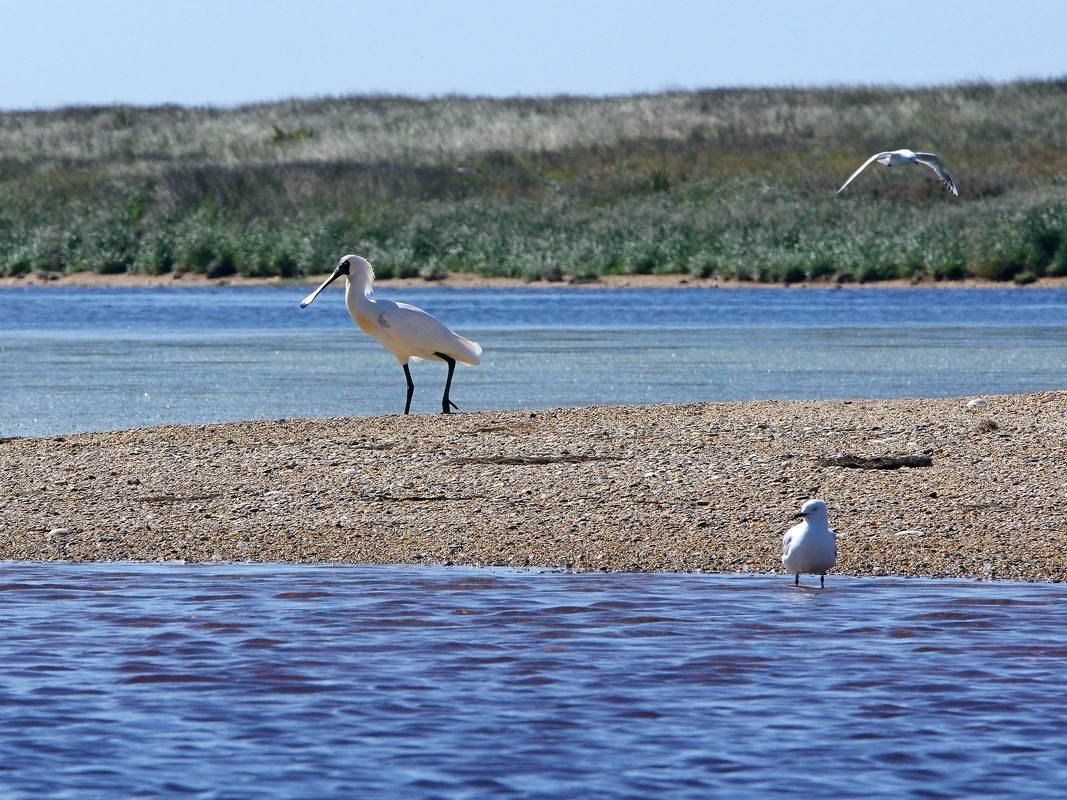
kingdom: Animalia
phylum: Chordata
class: Aves
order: Pelecaniformes
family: Threskiornithidae
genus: Platalea
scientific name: Platalea regia
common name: Royal spoonbill
